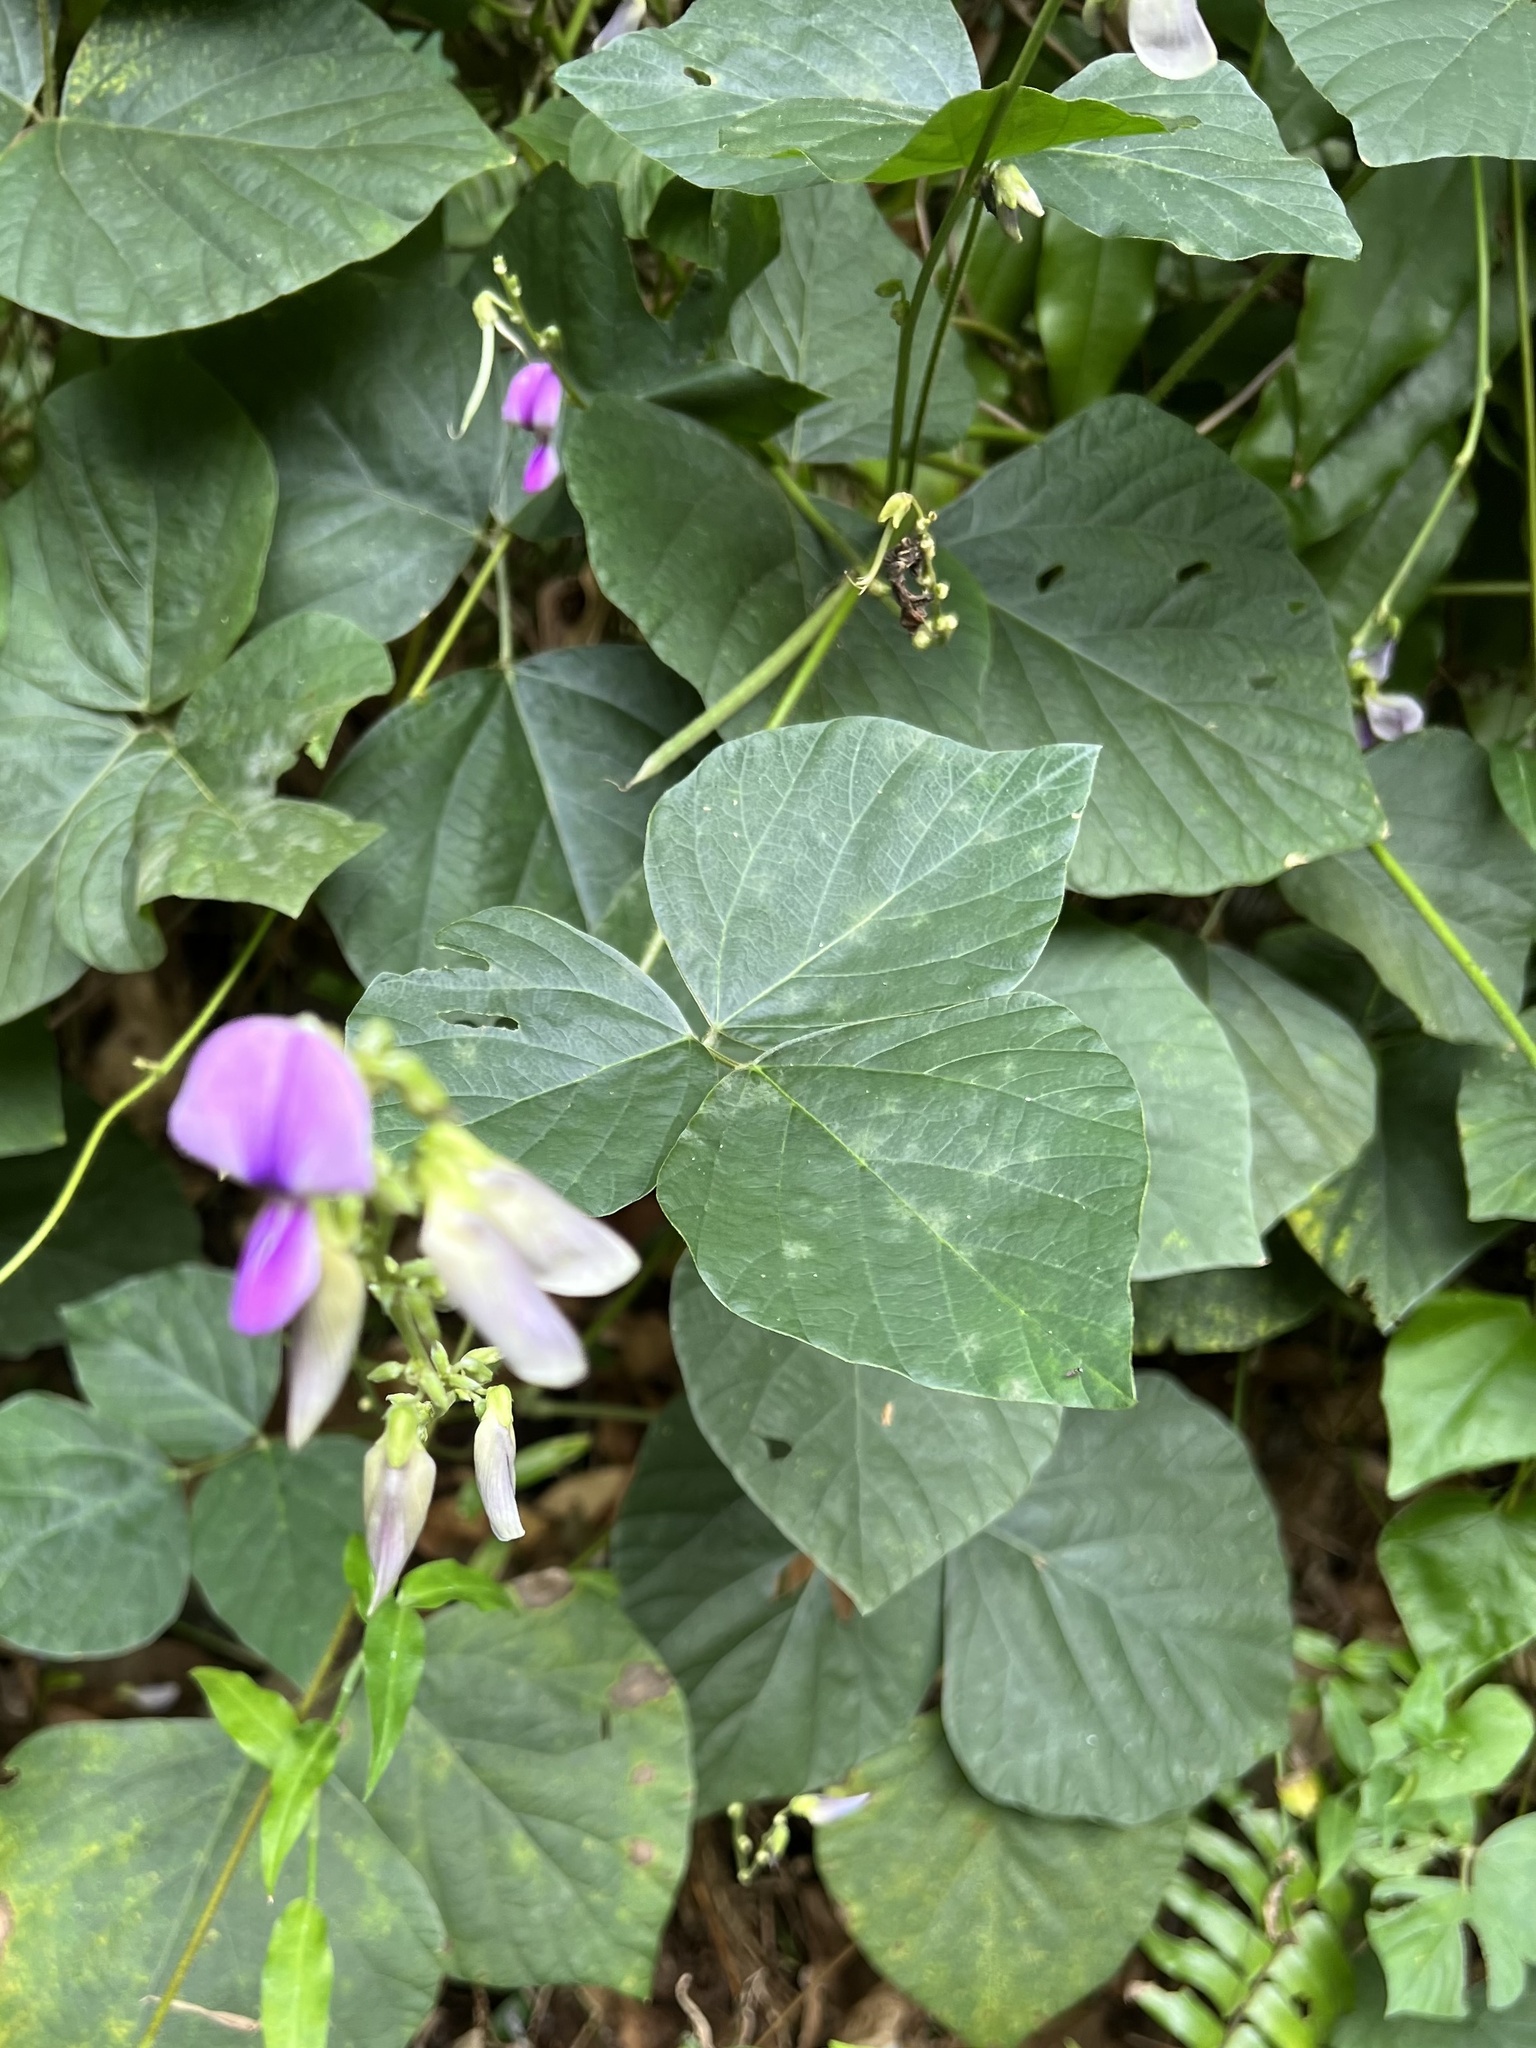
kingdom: Plantae
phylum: Tracheophyta
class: Magnoliopsida
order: Fabales
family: Fabaceae
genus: Neustanthus
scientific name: Neustanthus phaseoloides
